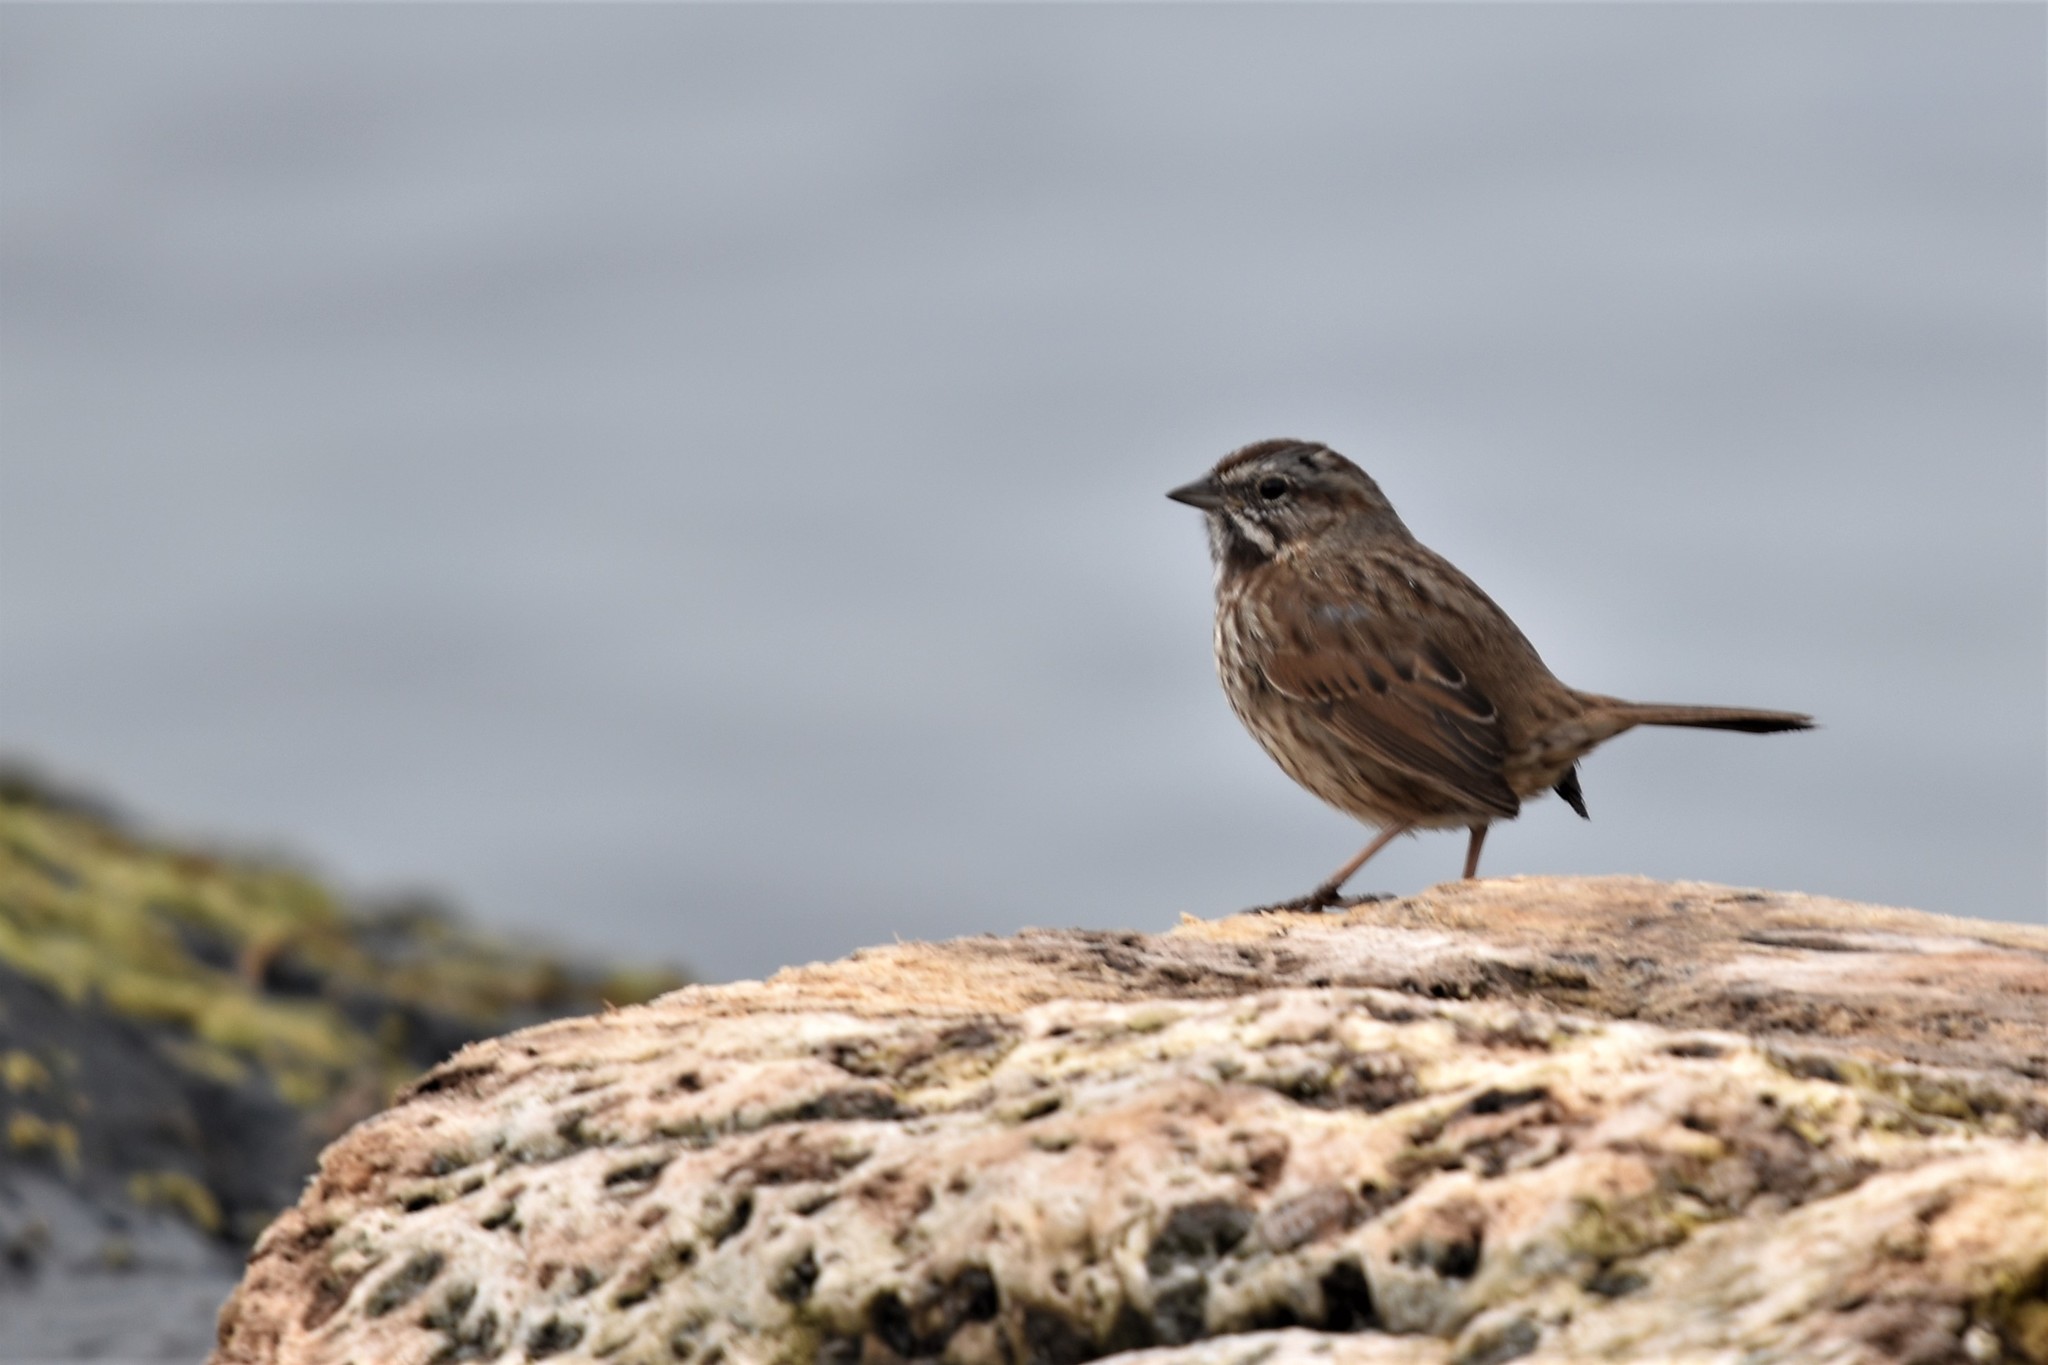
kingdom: Animalia
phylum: Chordata
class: Aves
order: Passeriformes
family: Passerellidae
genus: Melospiza
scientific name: Melospiza melodia
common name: Song sparrow
